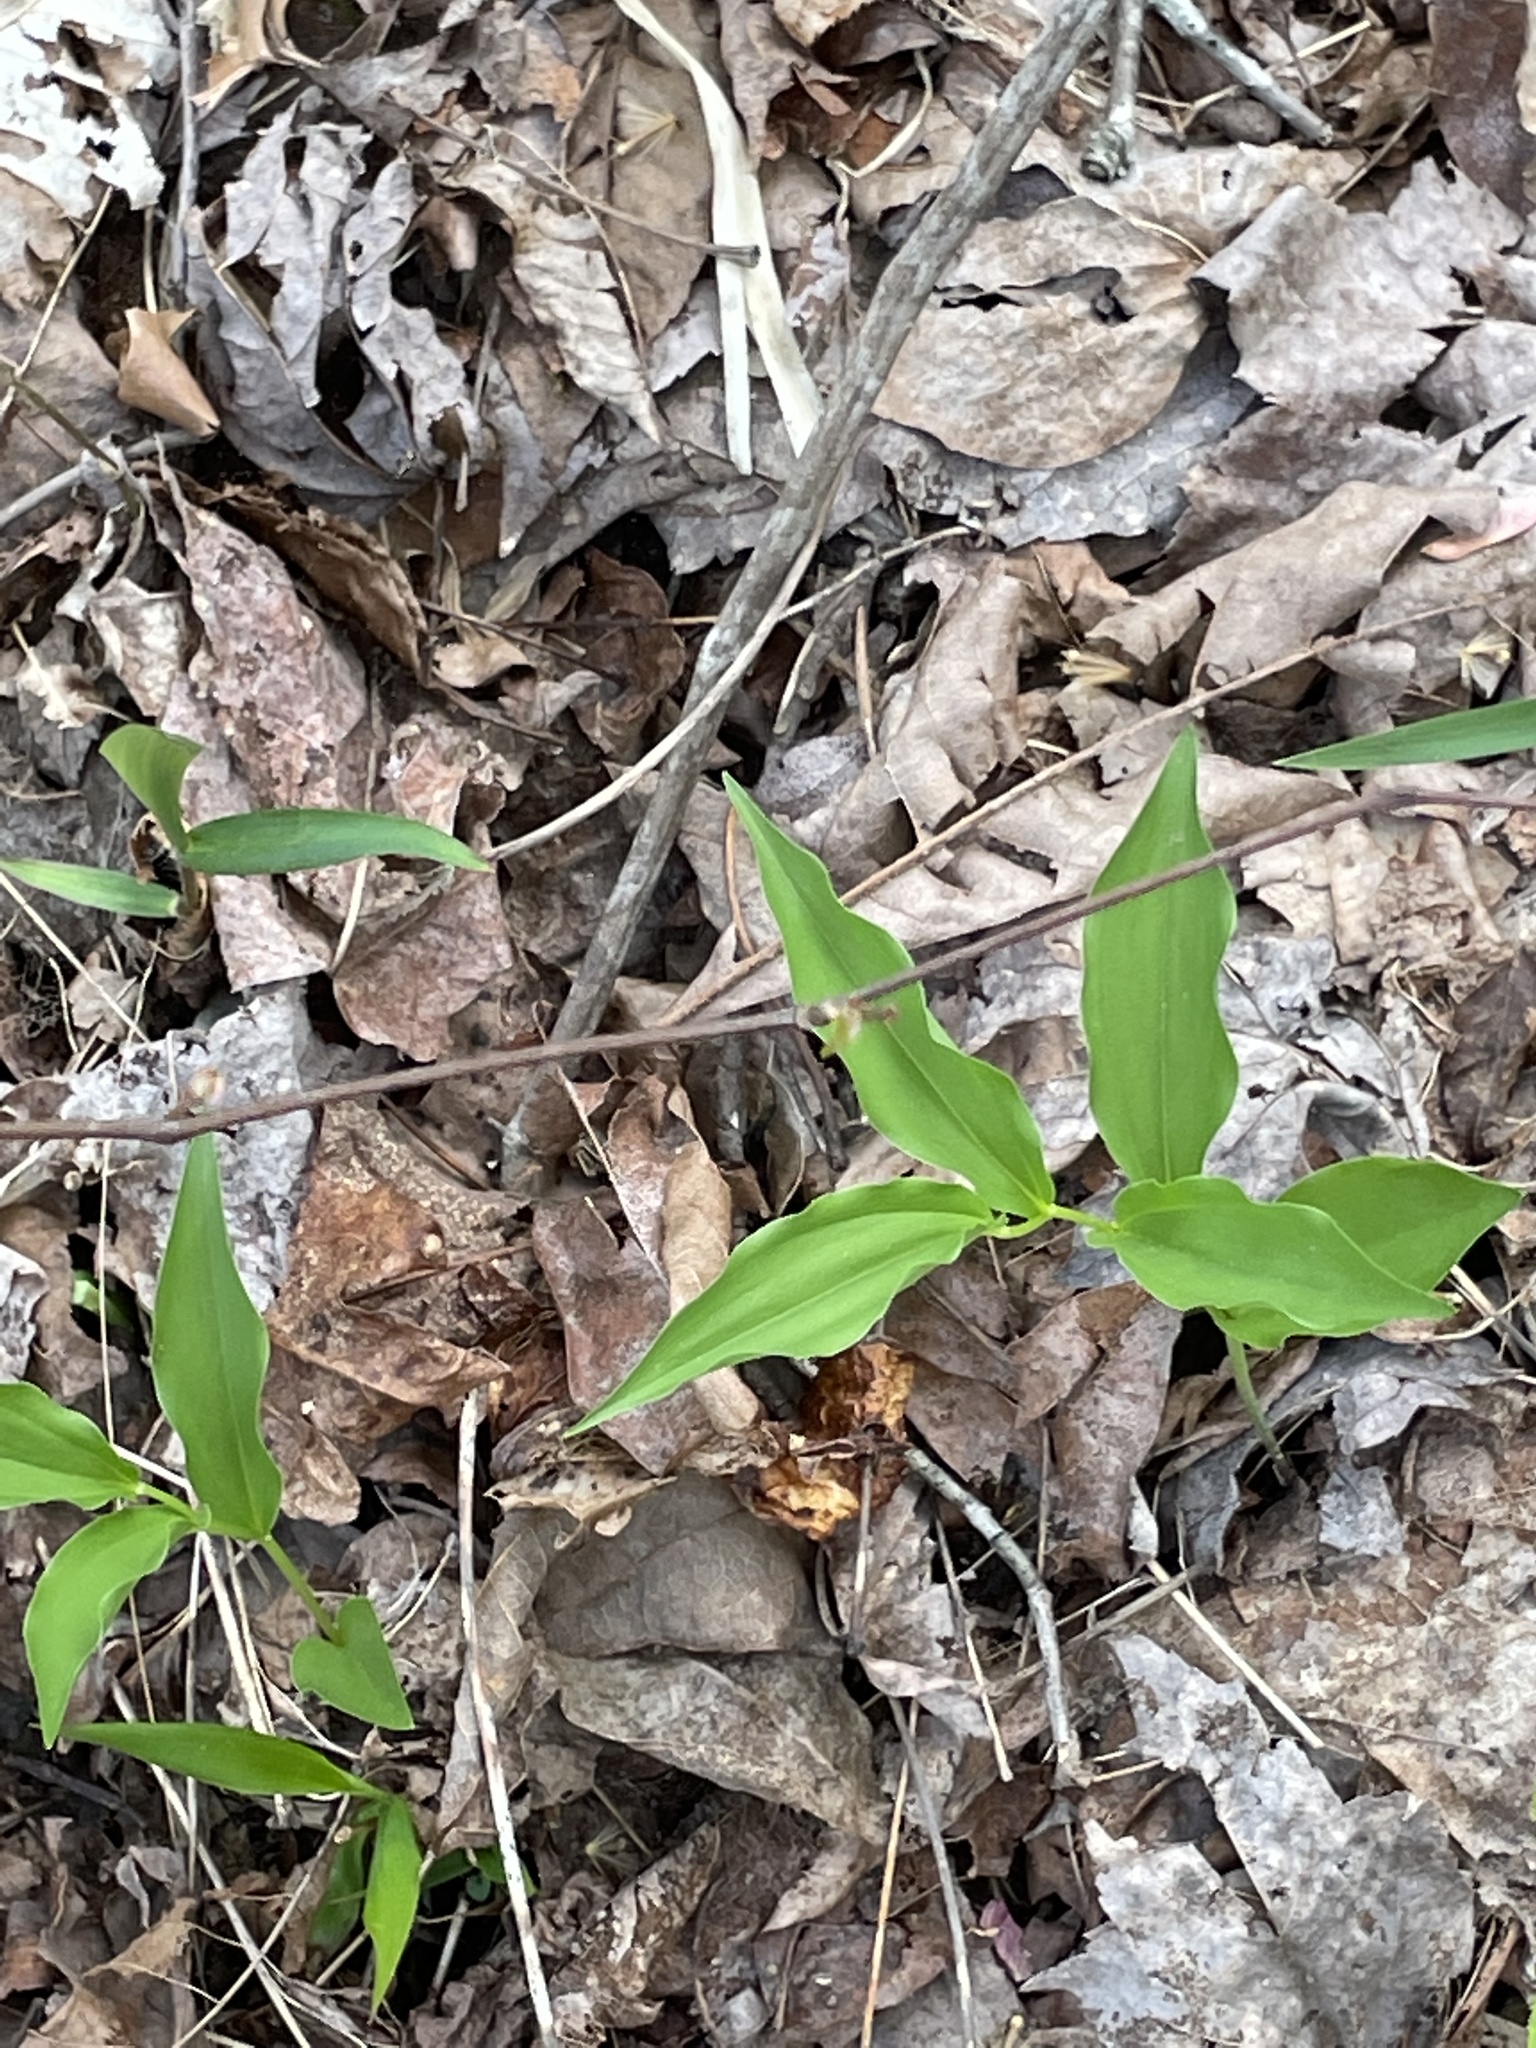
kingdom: Plantae
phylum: Tracheophyta
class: Liliopsida
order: Asparagales
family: Asparagaceae
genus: Maianthemum
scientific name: Maianthemum racemosum
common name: False spikenard
